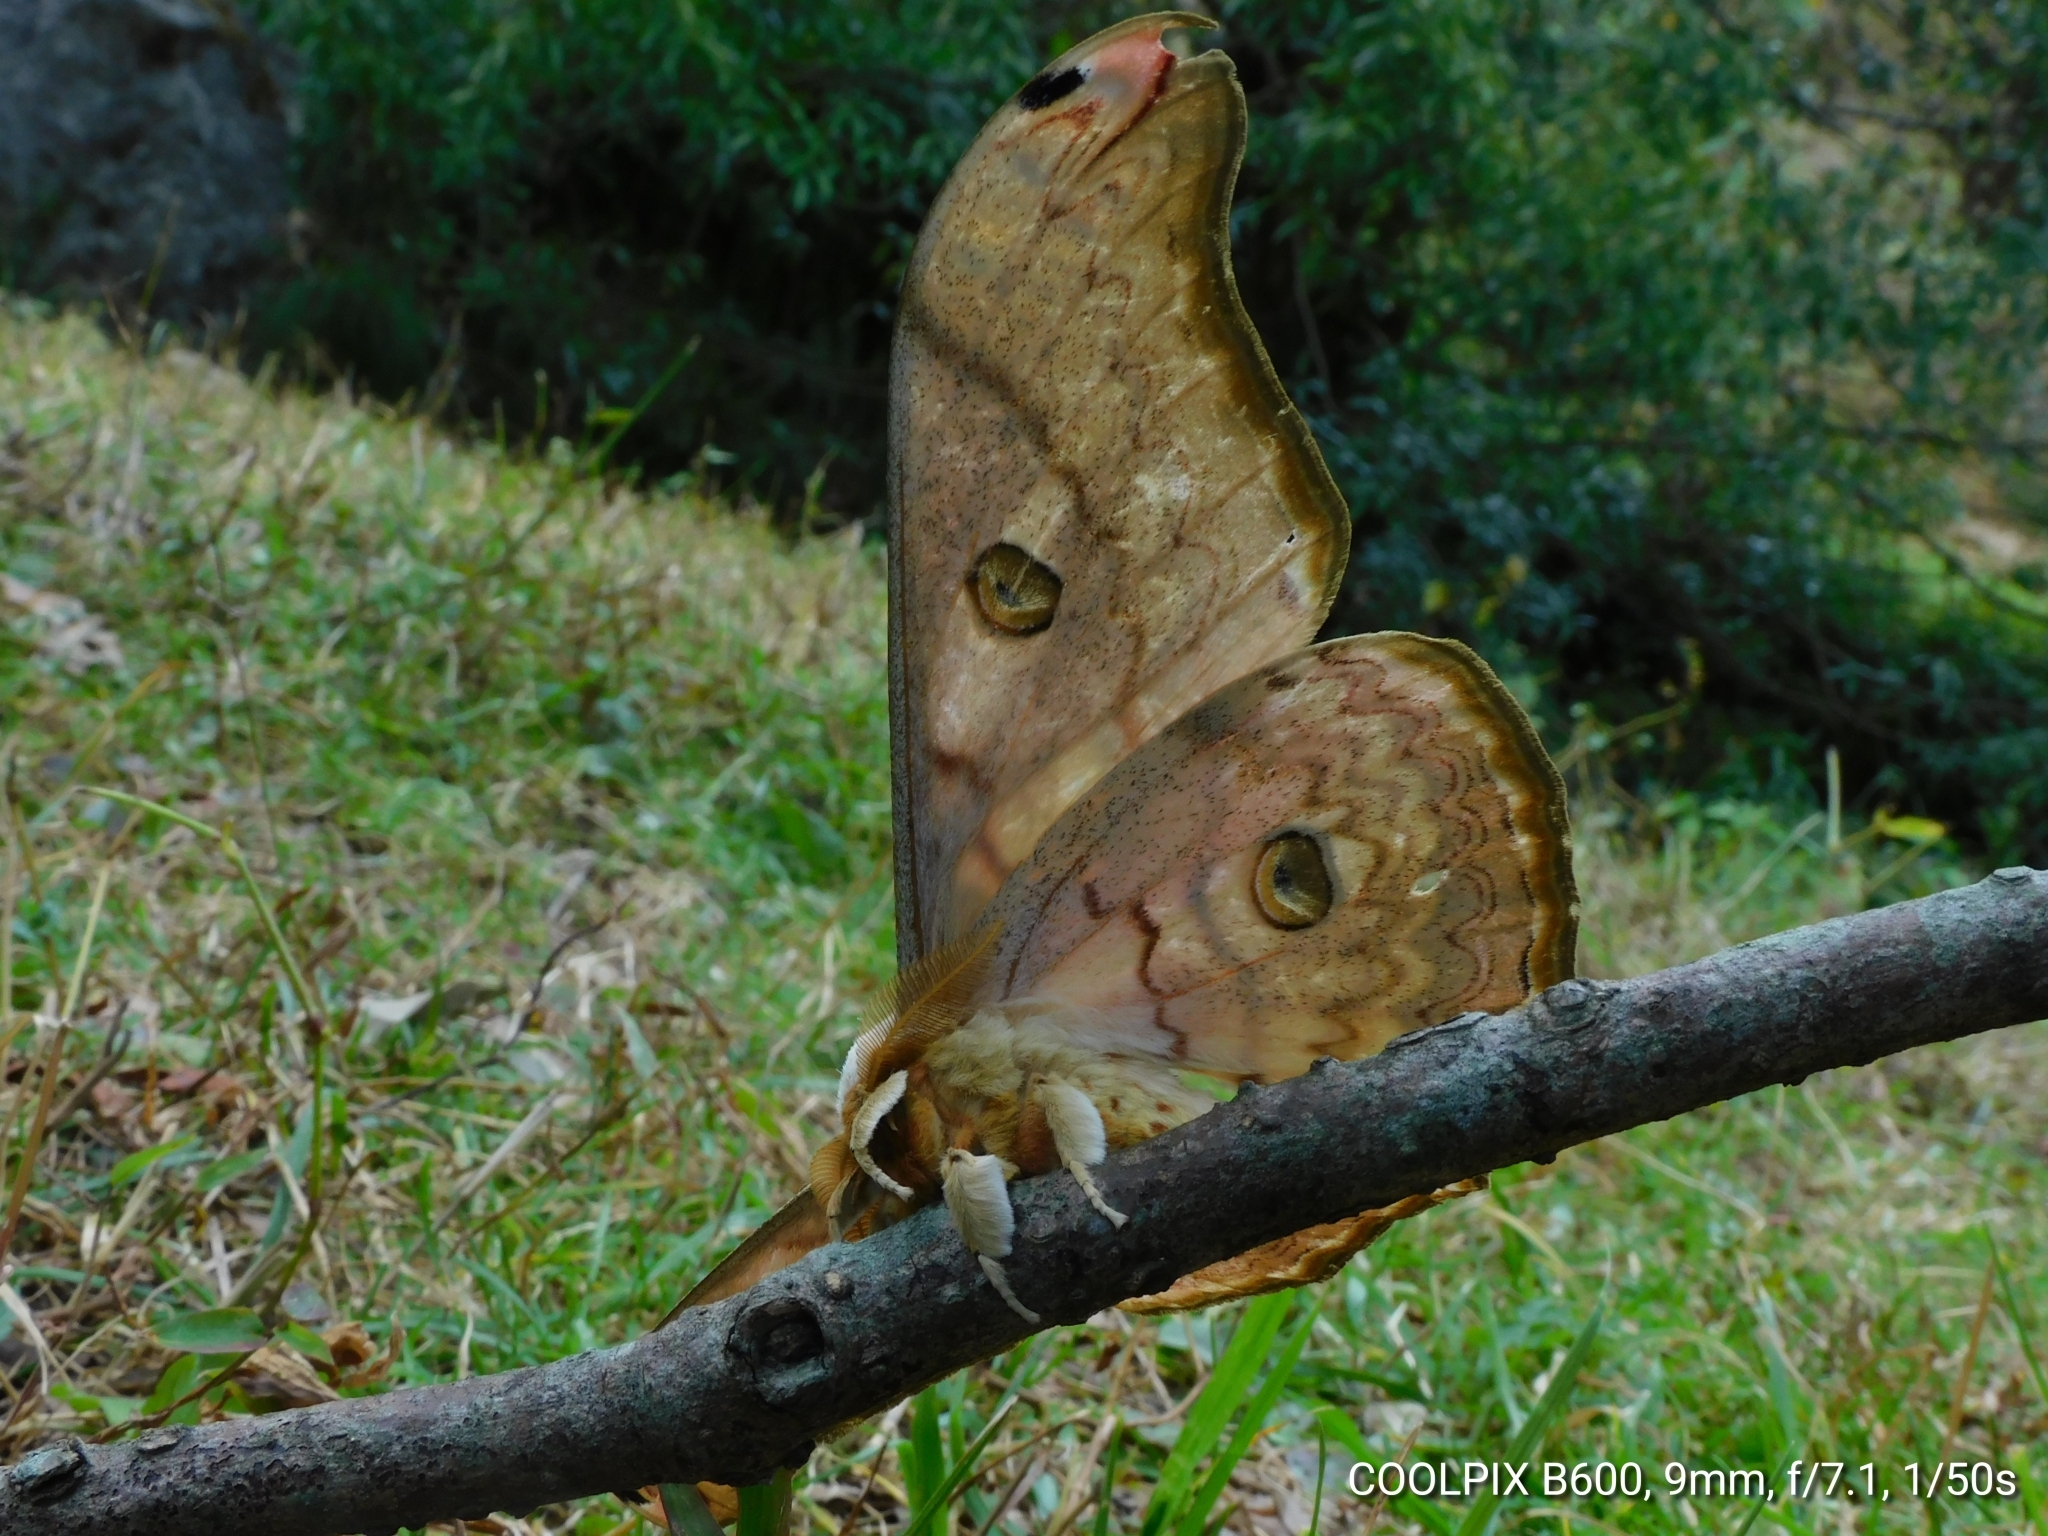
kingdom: Animalia
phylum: Arthropoda
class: Insecta
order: Lepidoptera
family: Saturniidae
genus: Rinaca
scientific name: Rinaca thibeta
